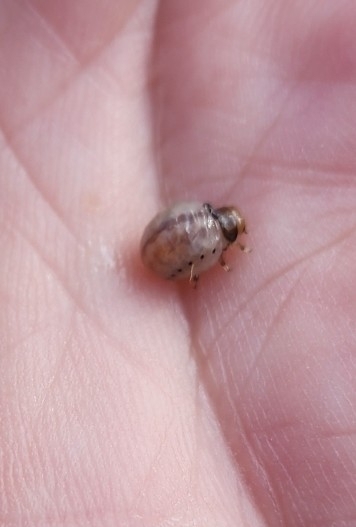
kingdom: Animalia
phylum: Arthropoda
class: Insecta
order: Coleoptera
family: Chrysomelidae
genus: Leptinotarsa
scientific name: Leptinotarsa juncta
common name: False potato beetle
